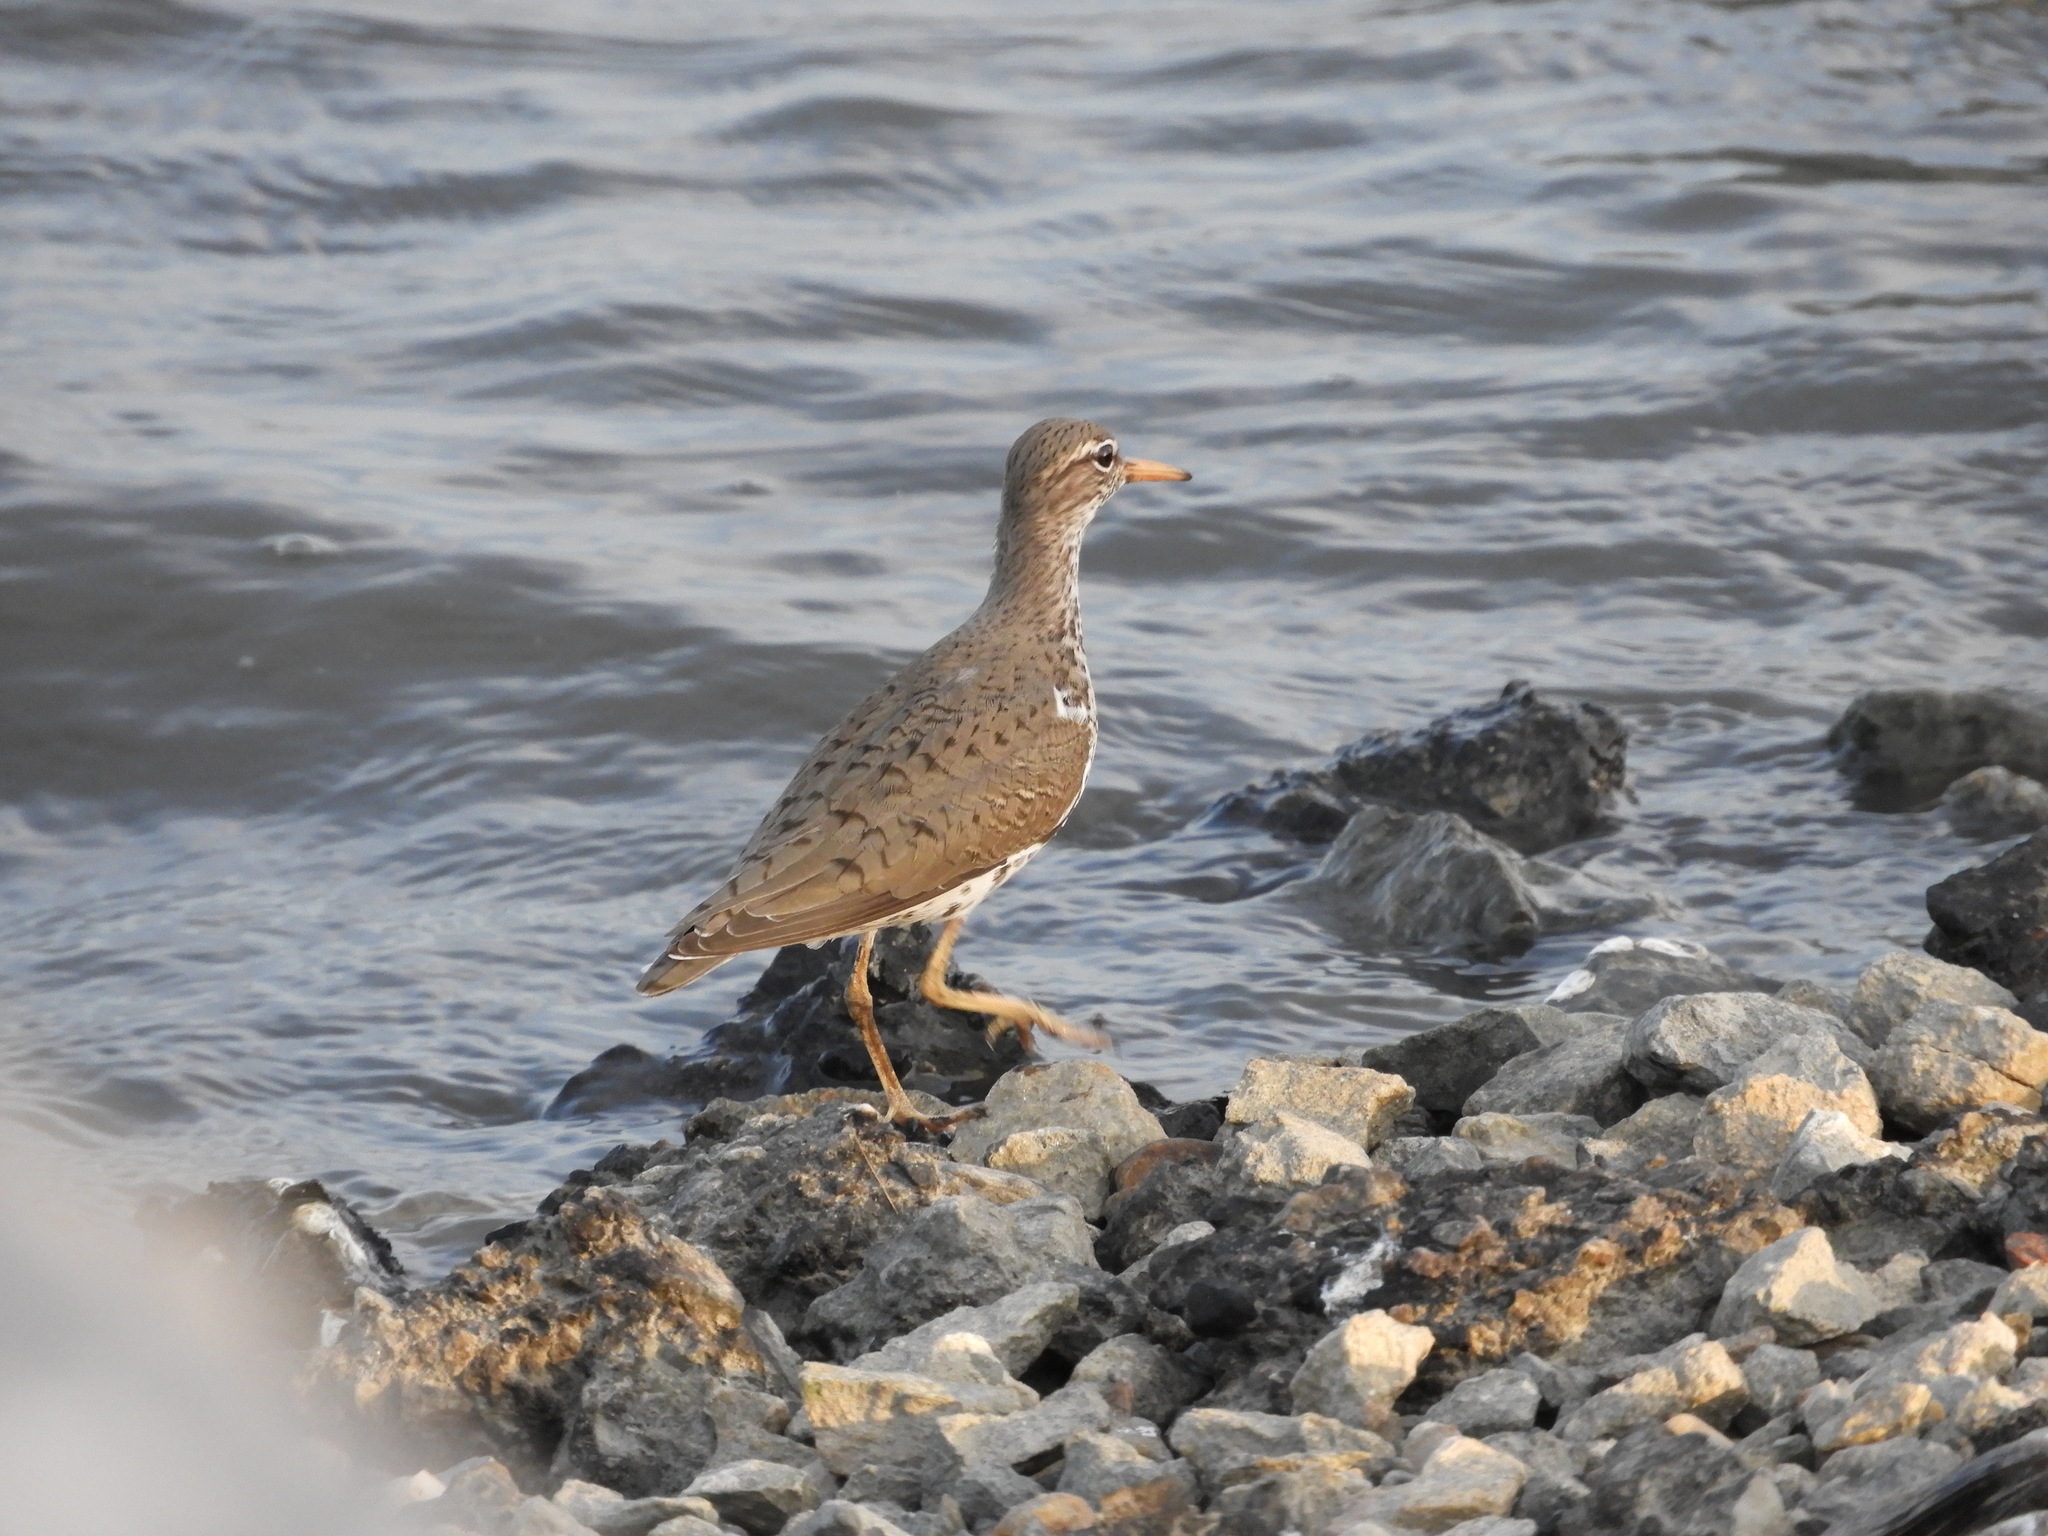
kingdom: Animalia
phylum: Chordata
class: Aves
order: Charadriiformes
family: Scolopacidae
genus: Actitis
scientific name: Actitis macularius
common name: Spotted sandpiper
